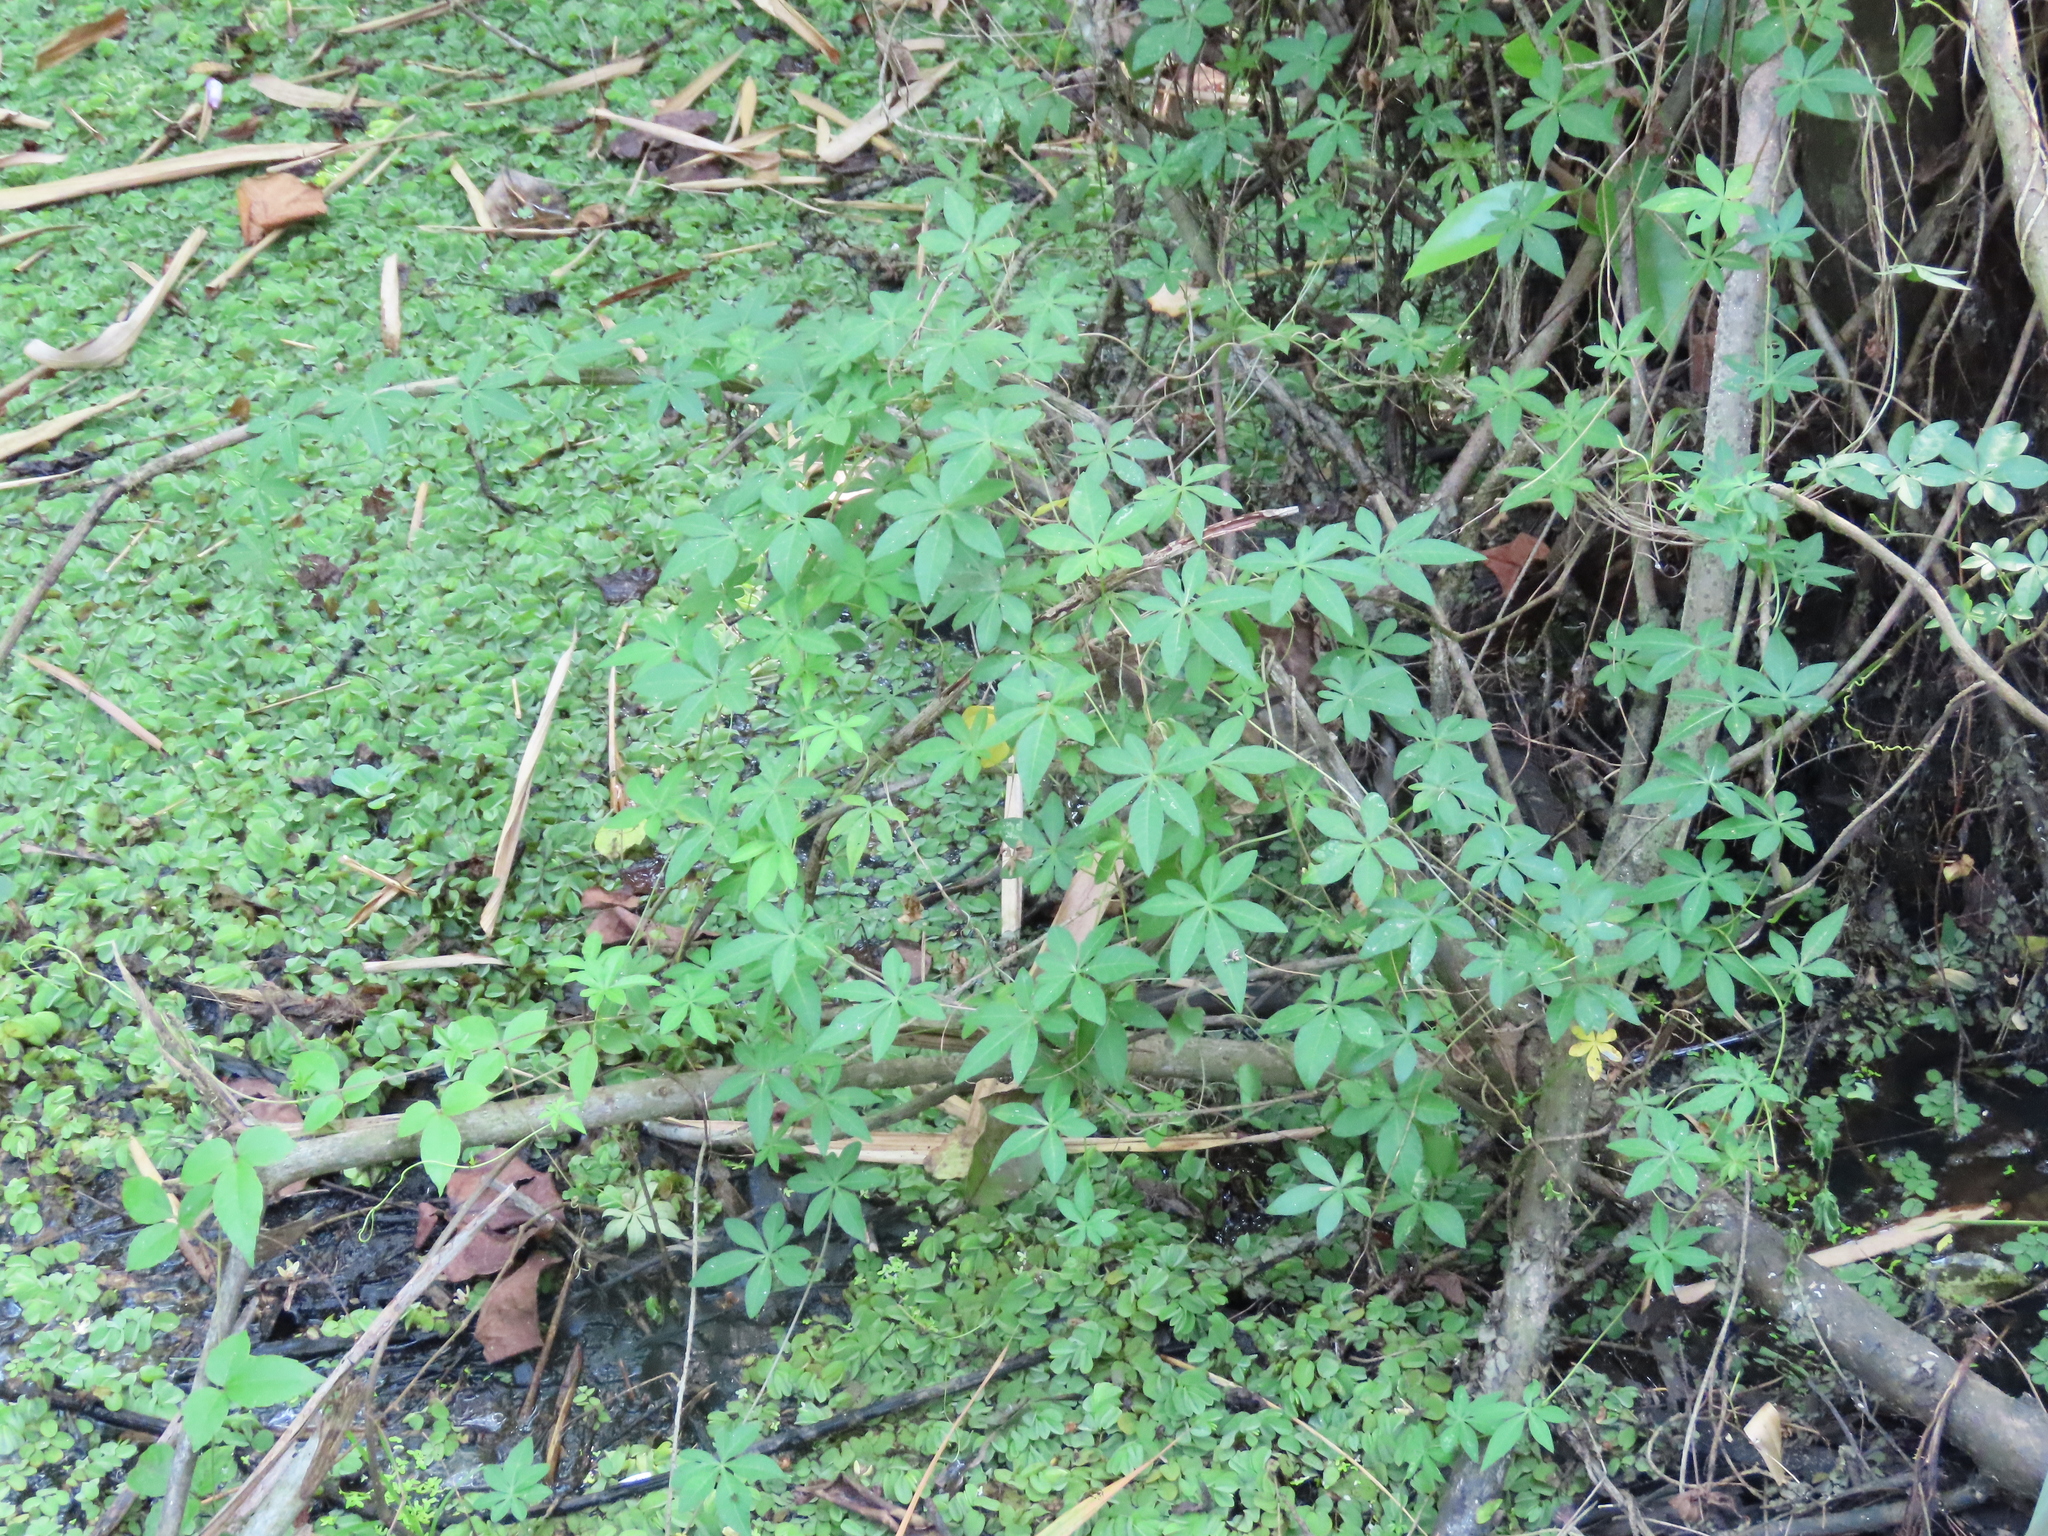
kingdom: Plantae
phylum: Tracheophyta
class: Magnoliopsida
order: Solanales
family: Convolvulaceae
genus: Ipomoea
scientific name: Ipomoea cairica
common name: Mile a minute vine
